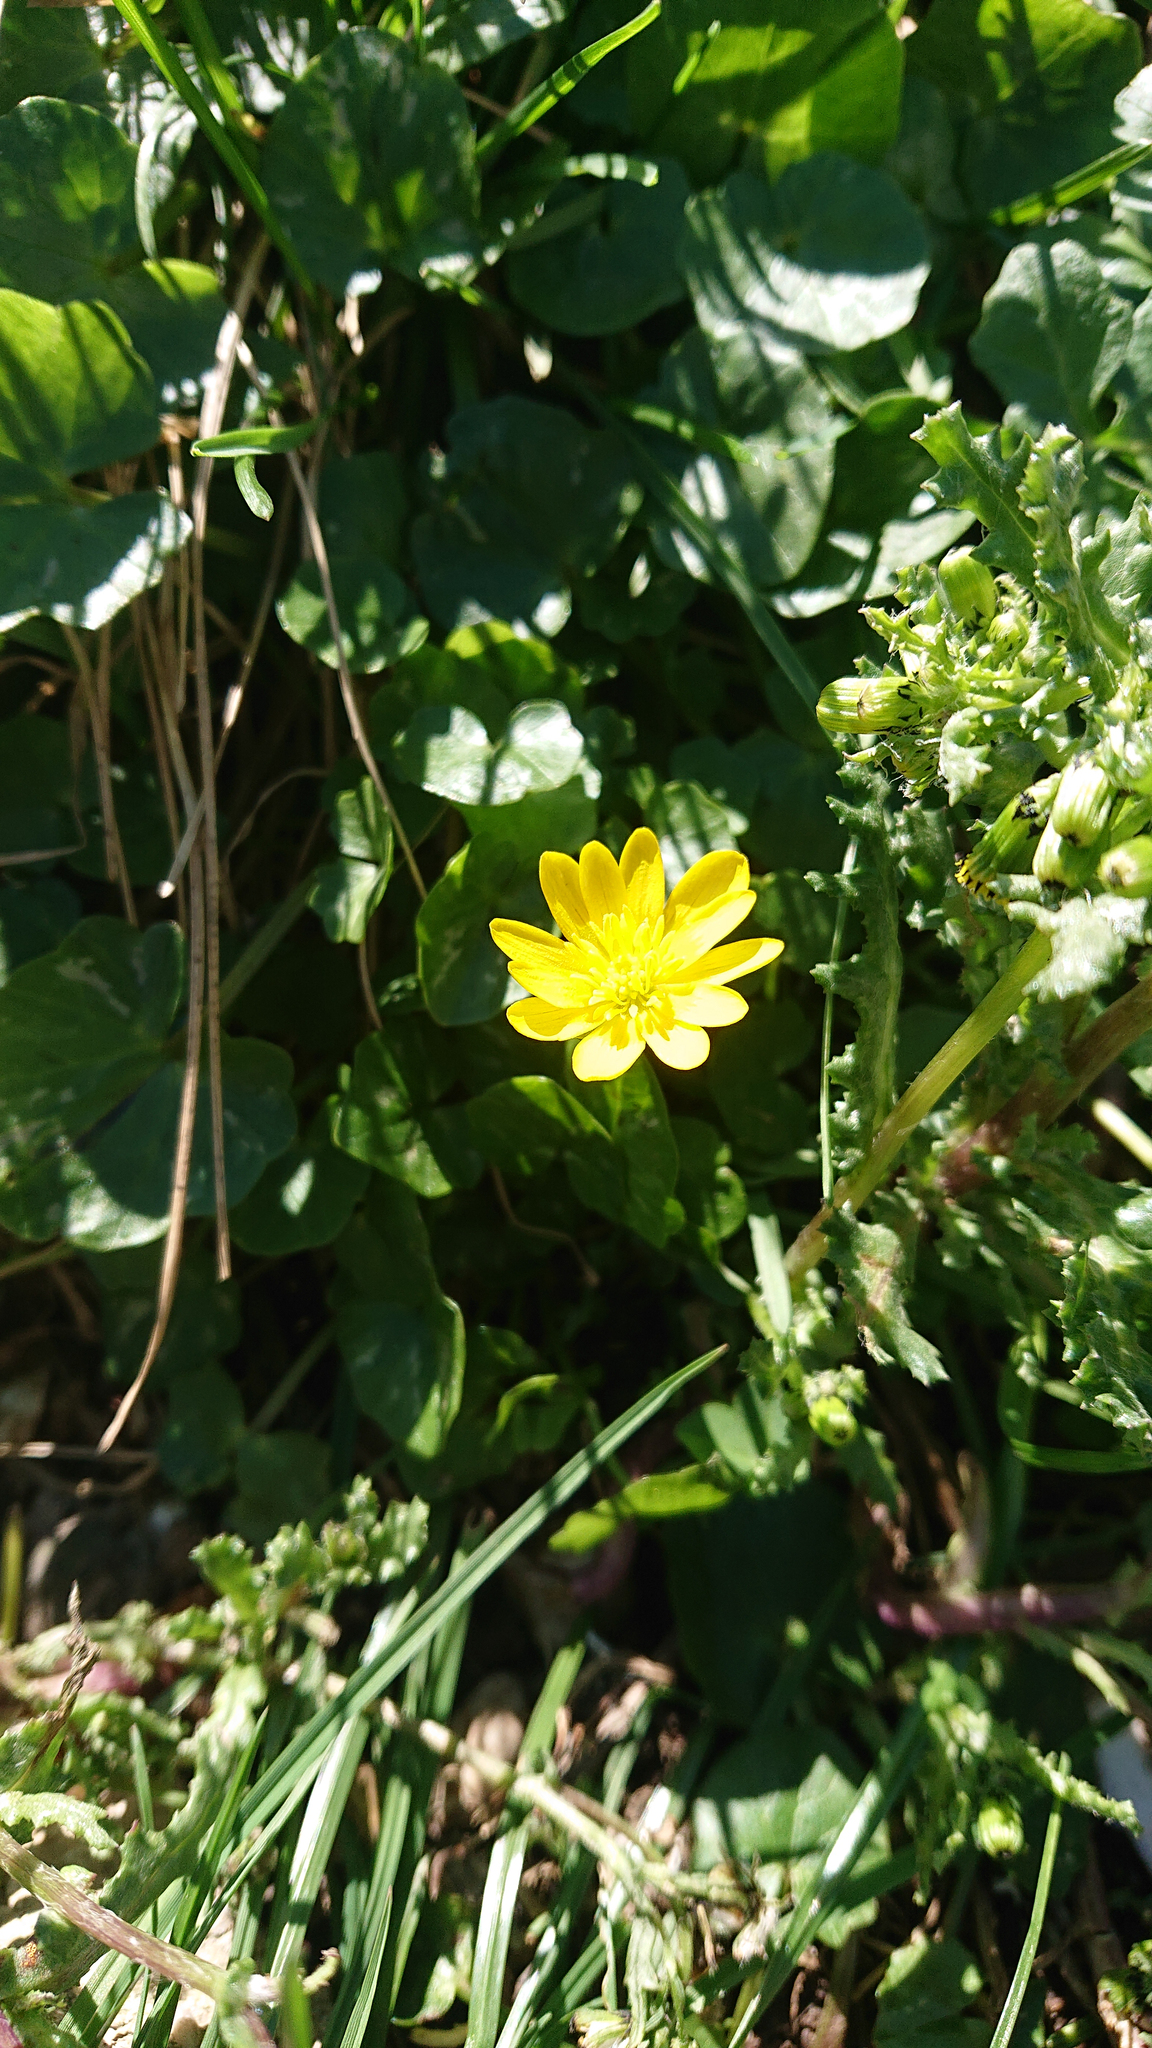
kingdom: Plantae
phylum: Tracheophyta
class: Magnoliopsida
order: Ranunculales
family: Ranunculaceae
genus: Ficaria
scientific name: Ficaria verna
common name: Lesser celandine
